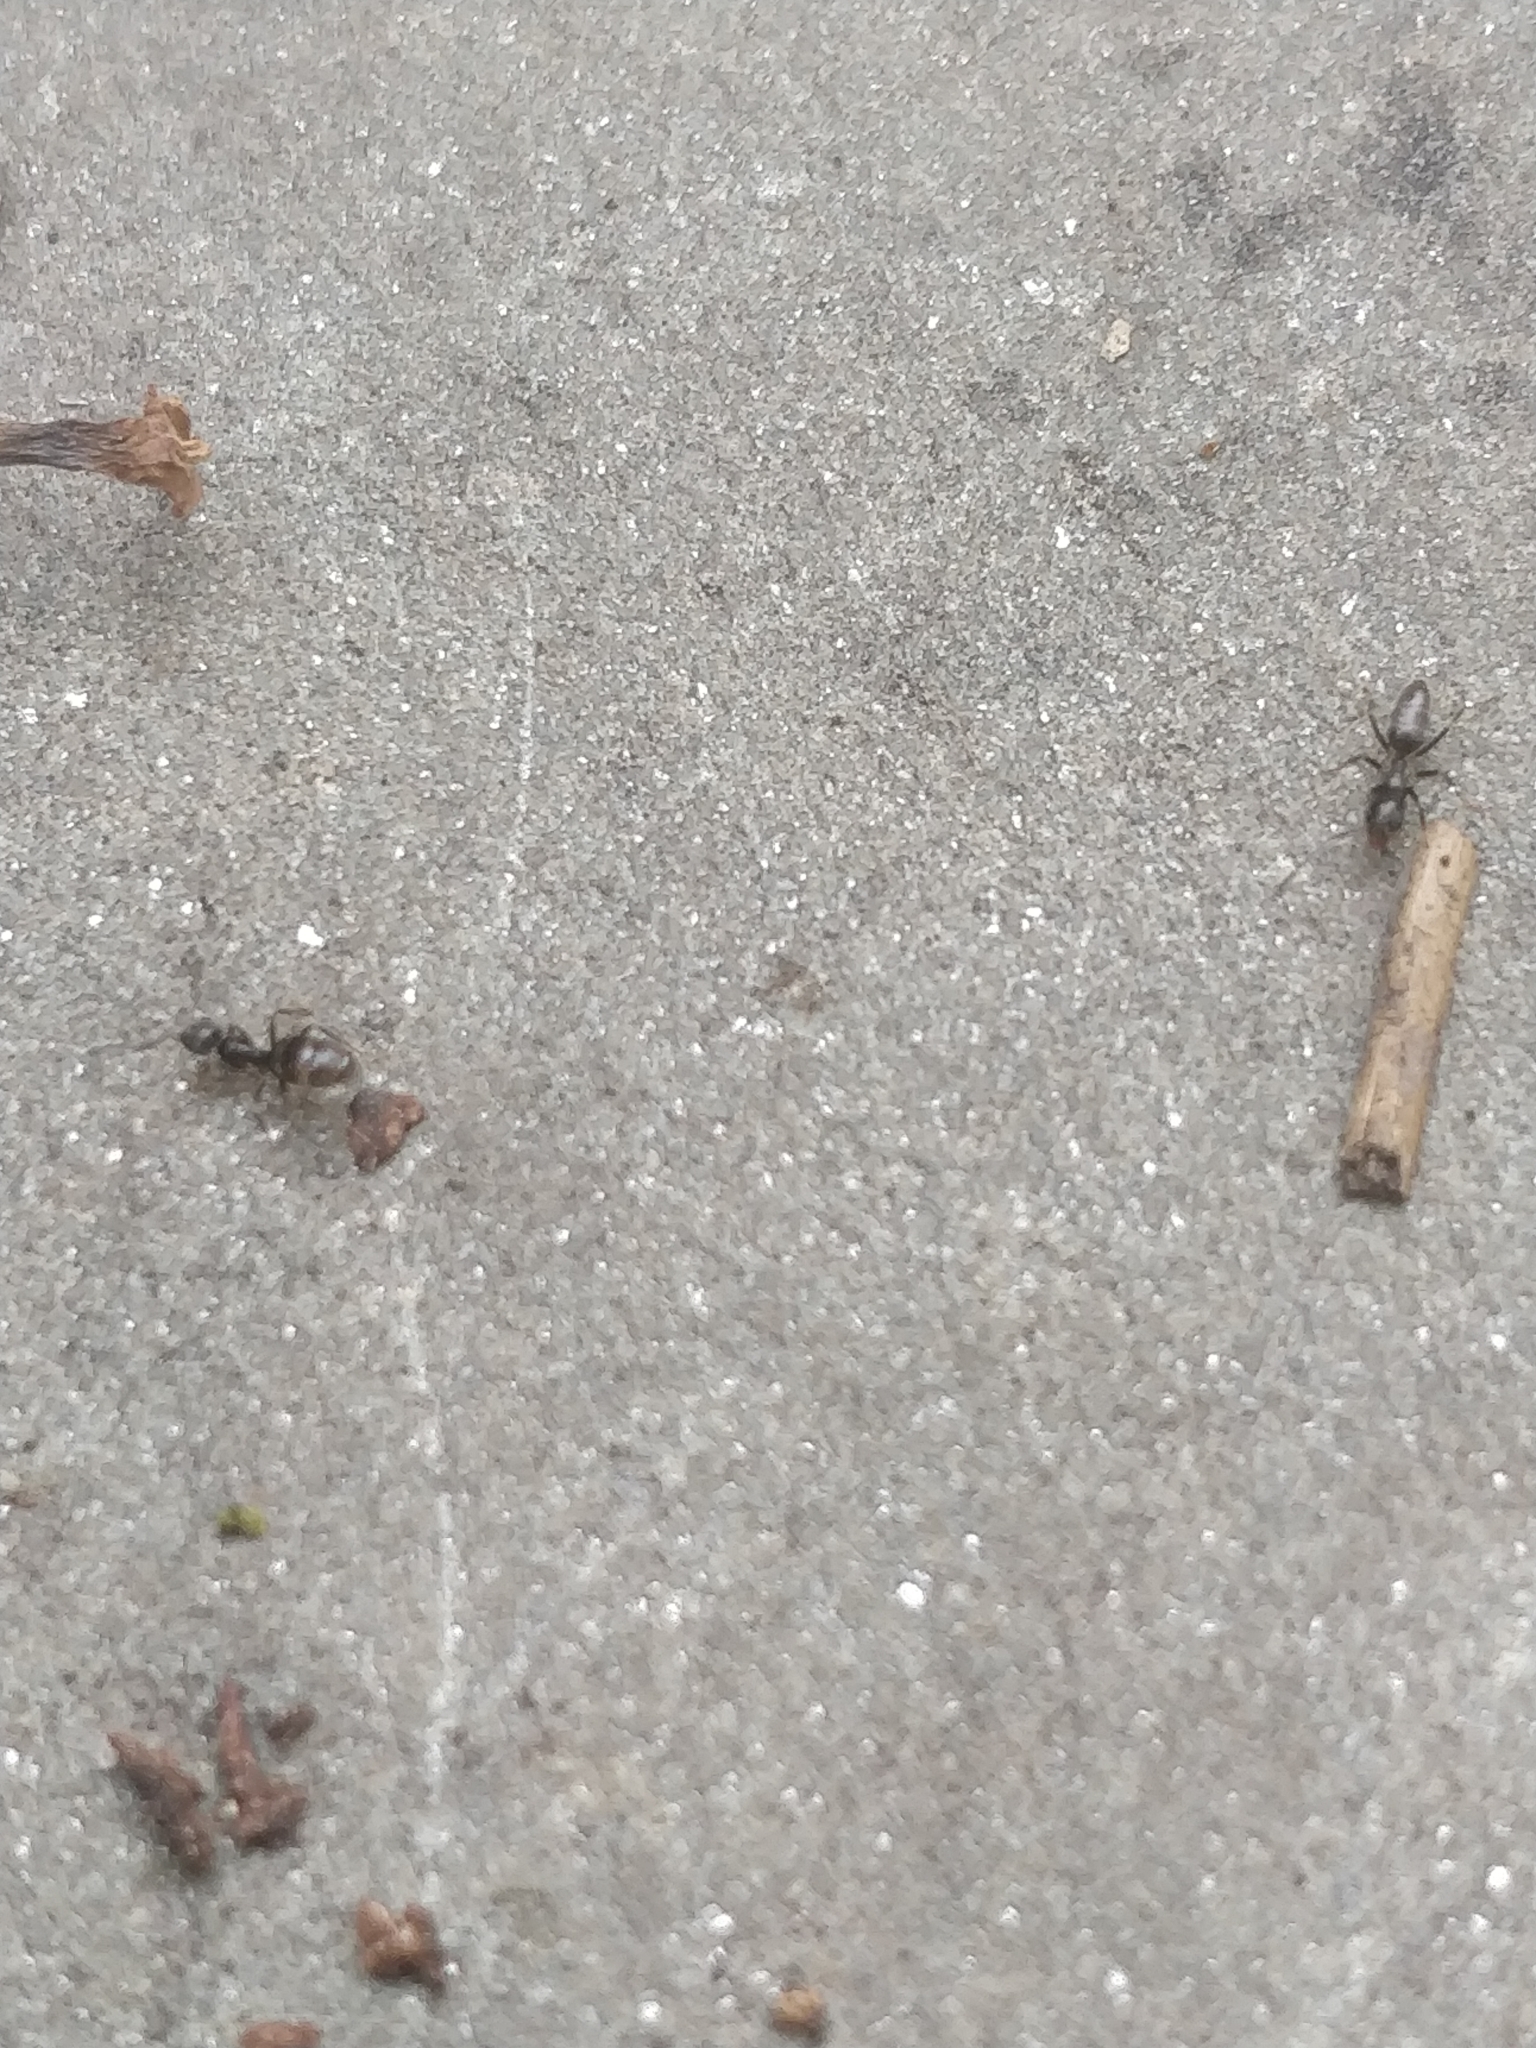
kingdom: Animalia
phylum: Arthropoda
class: Insecta
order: Hymenoptera
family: Formicidae
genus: Tapinoma
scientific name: Tapinoma sessile
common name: Odorous house ant
